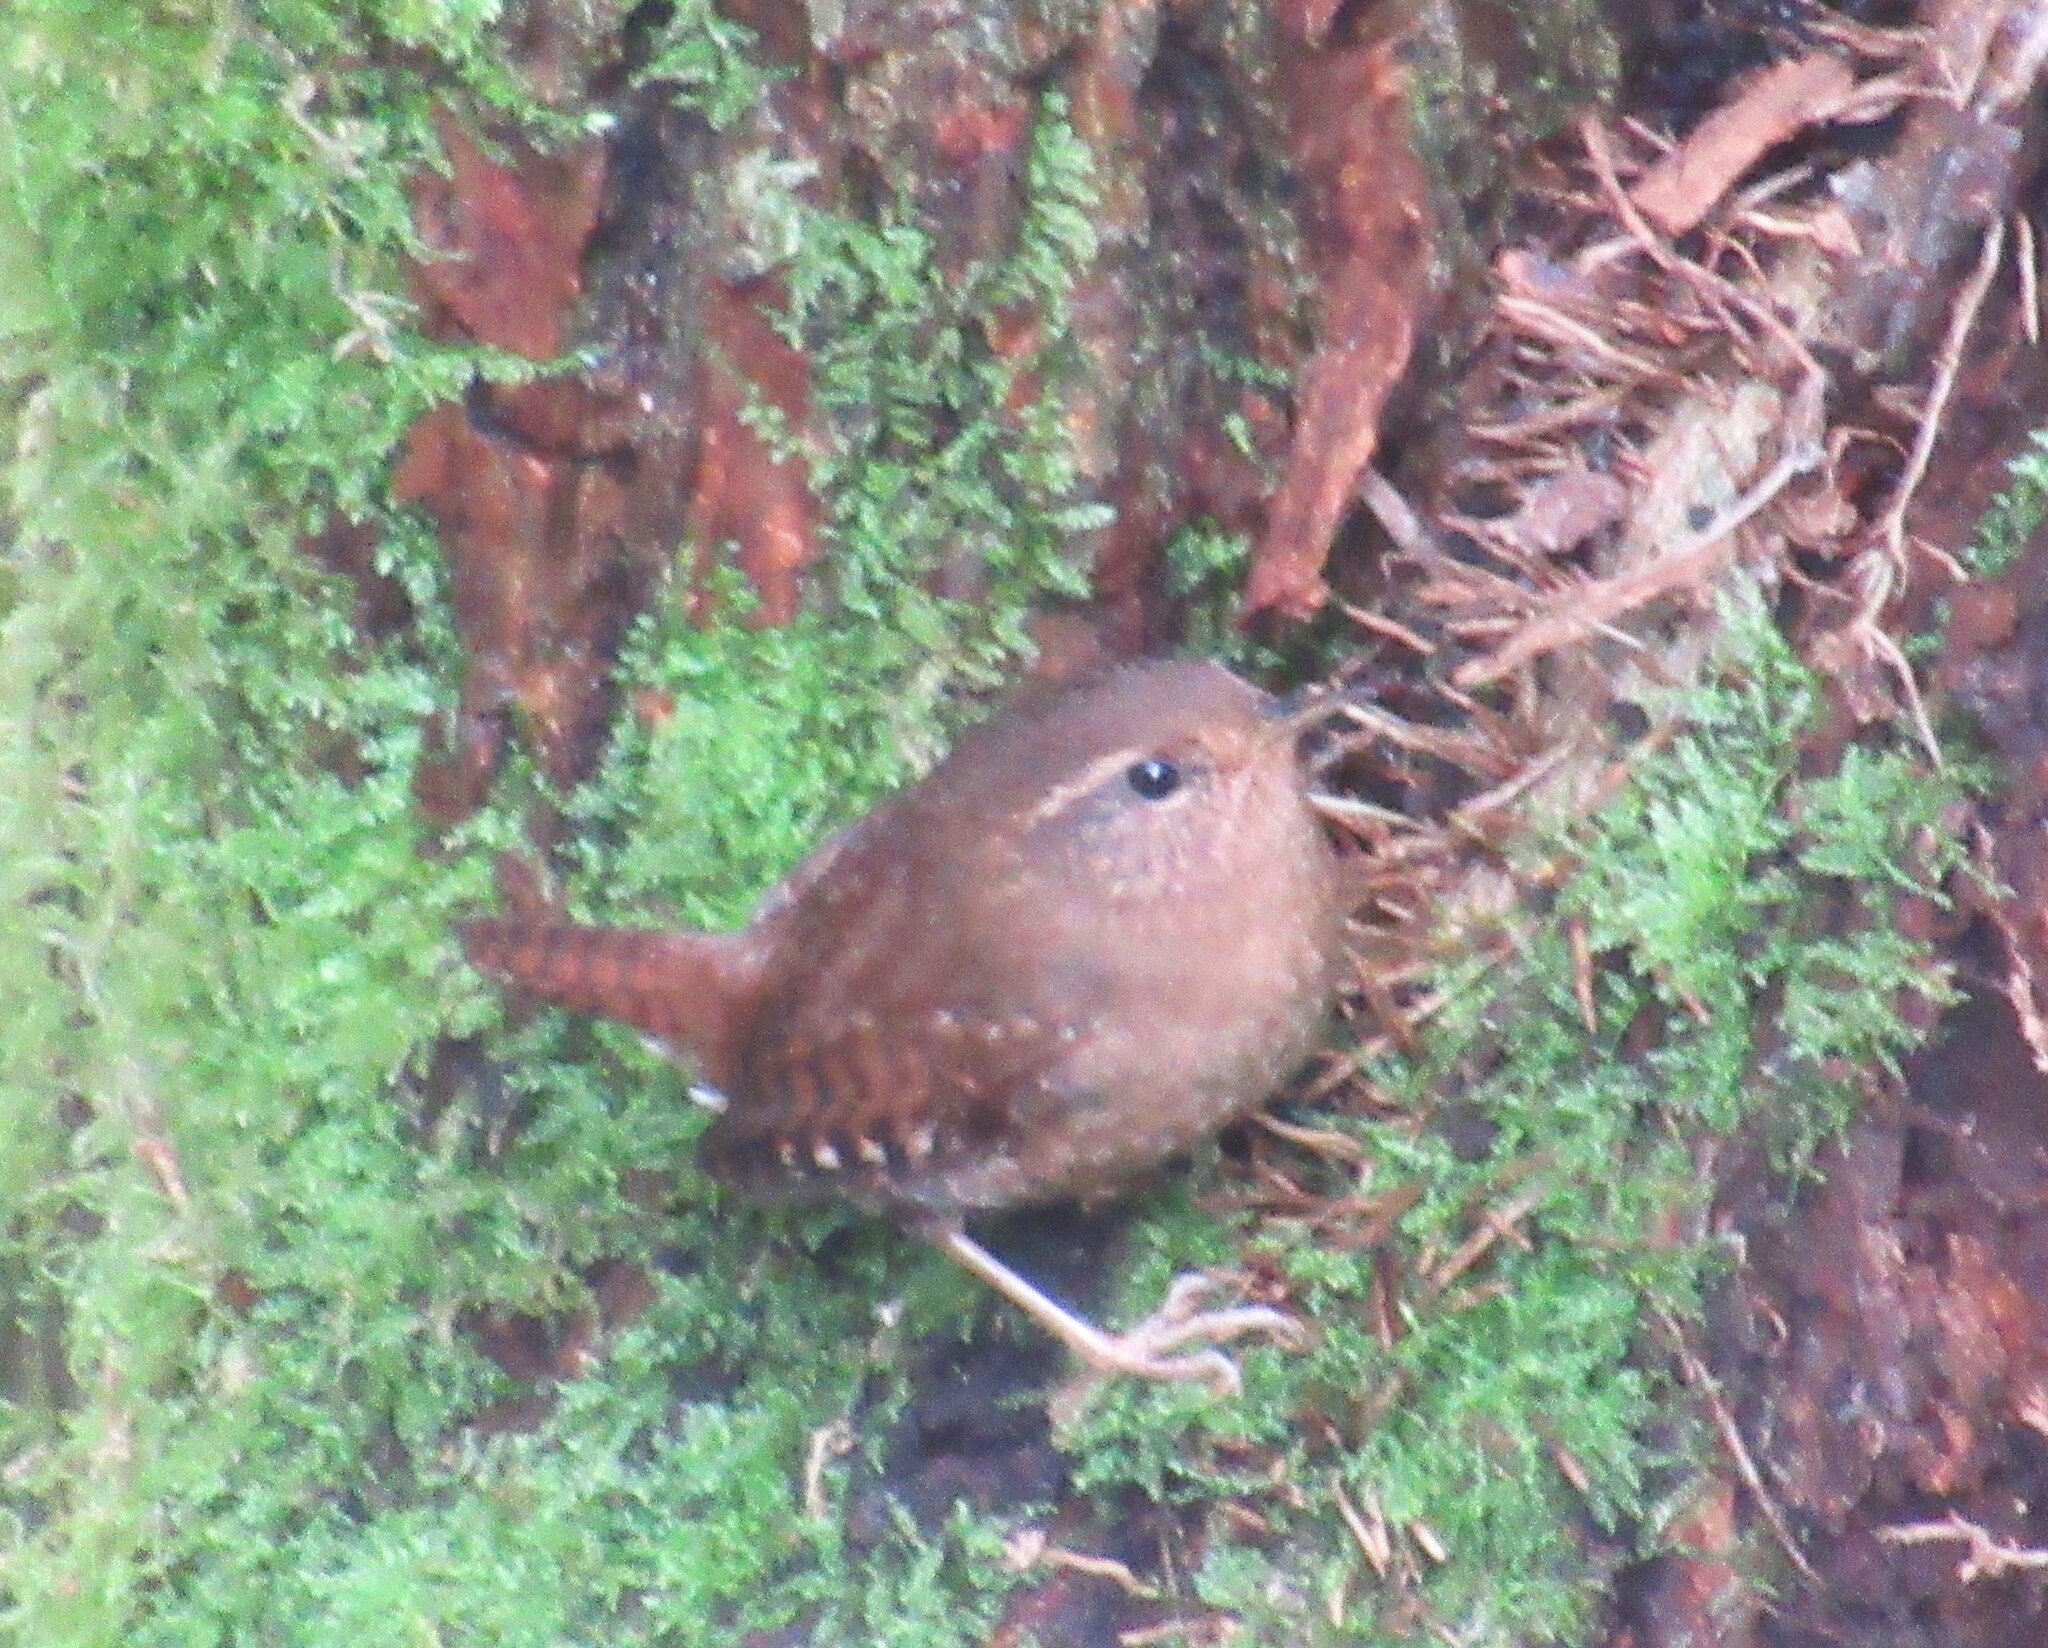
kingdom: Animalia
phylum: Chordata
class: Aves
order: Passeriformes
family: Troglodytidae
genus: Troglodytes
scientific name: Troglodytes pacificus
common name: Pacific wren
